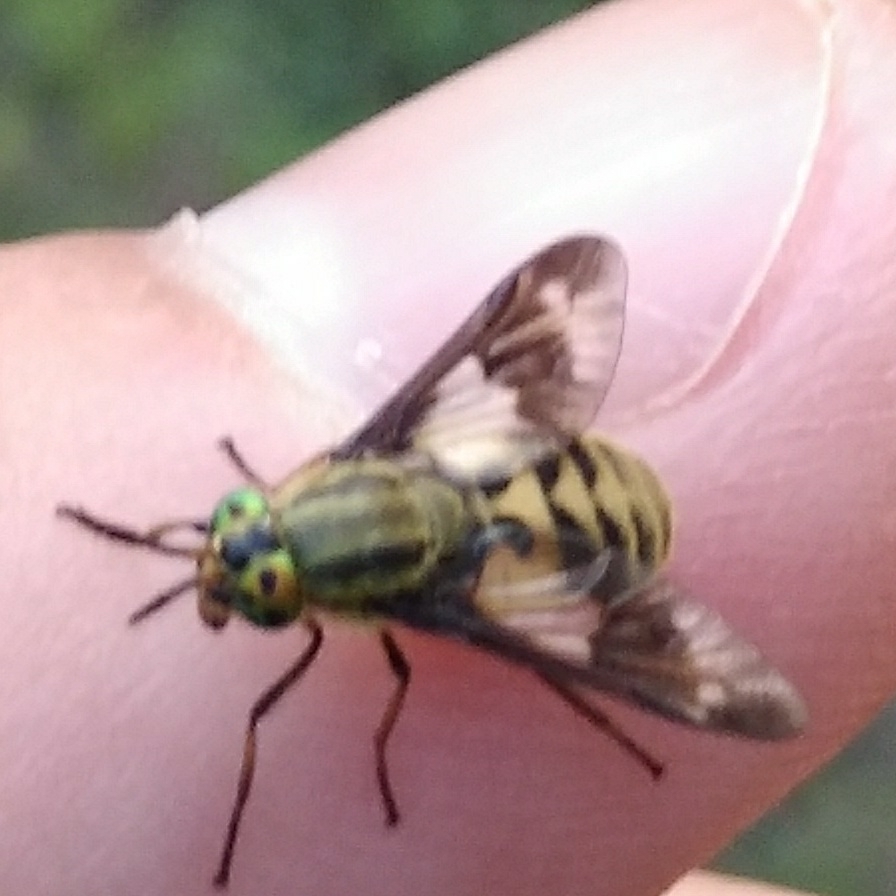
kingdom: Animalia
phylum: Arthropoda
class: Insecta
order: Diptera
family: Tabanidae
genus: Chrysops
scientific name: Chrysops relictus
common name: Twin-lobed deerfly
